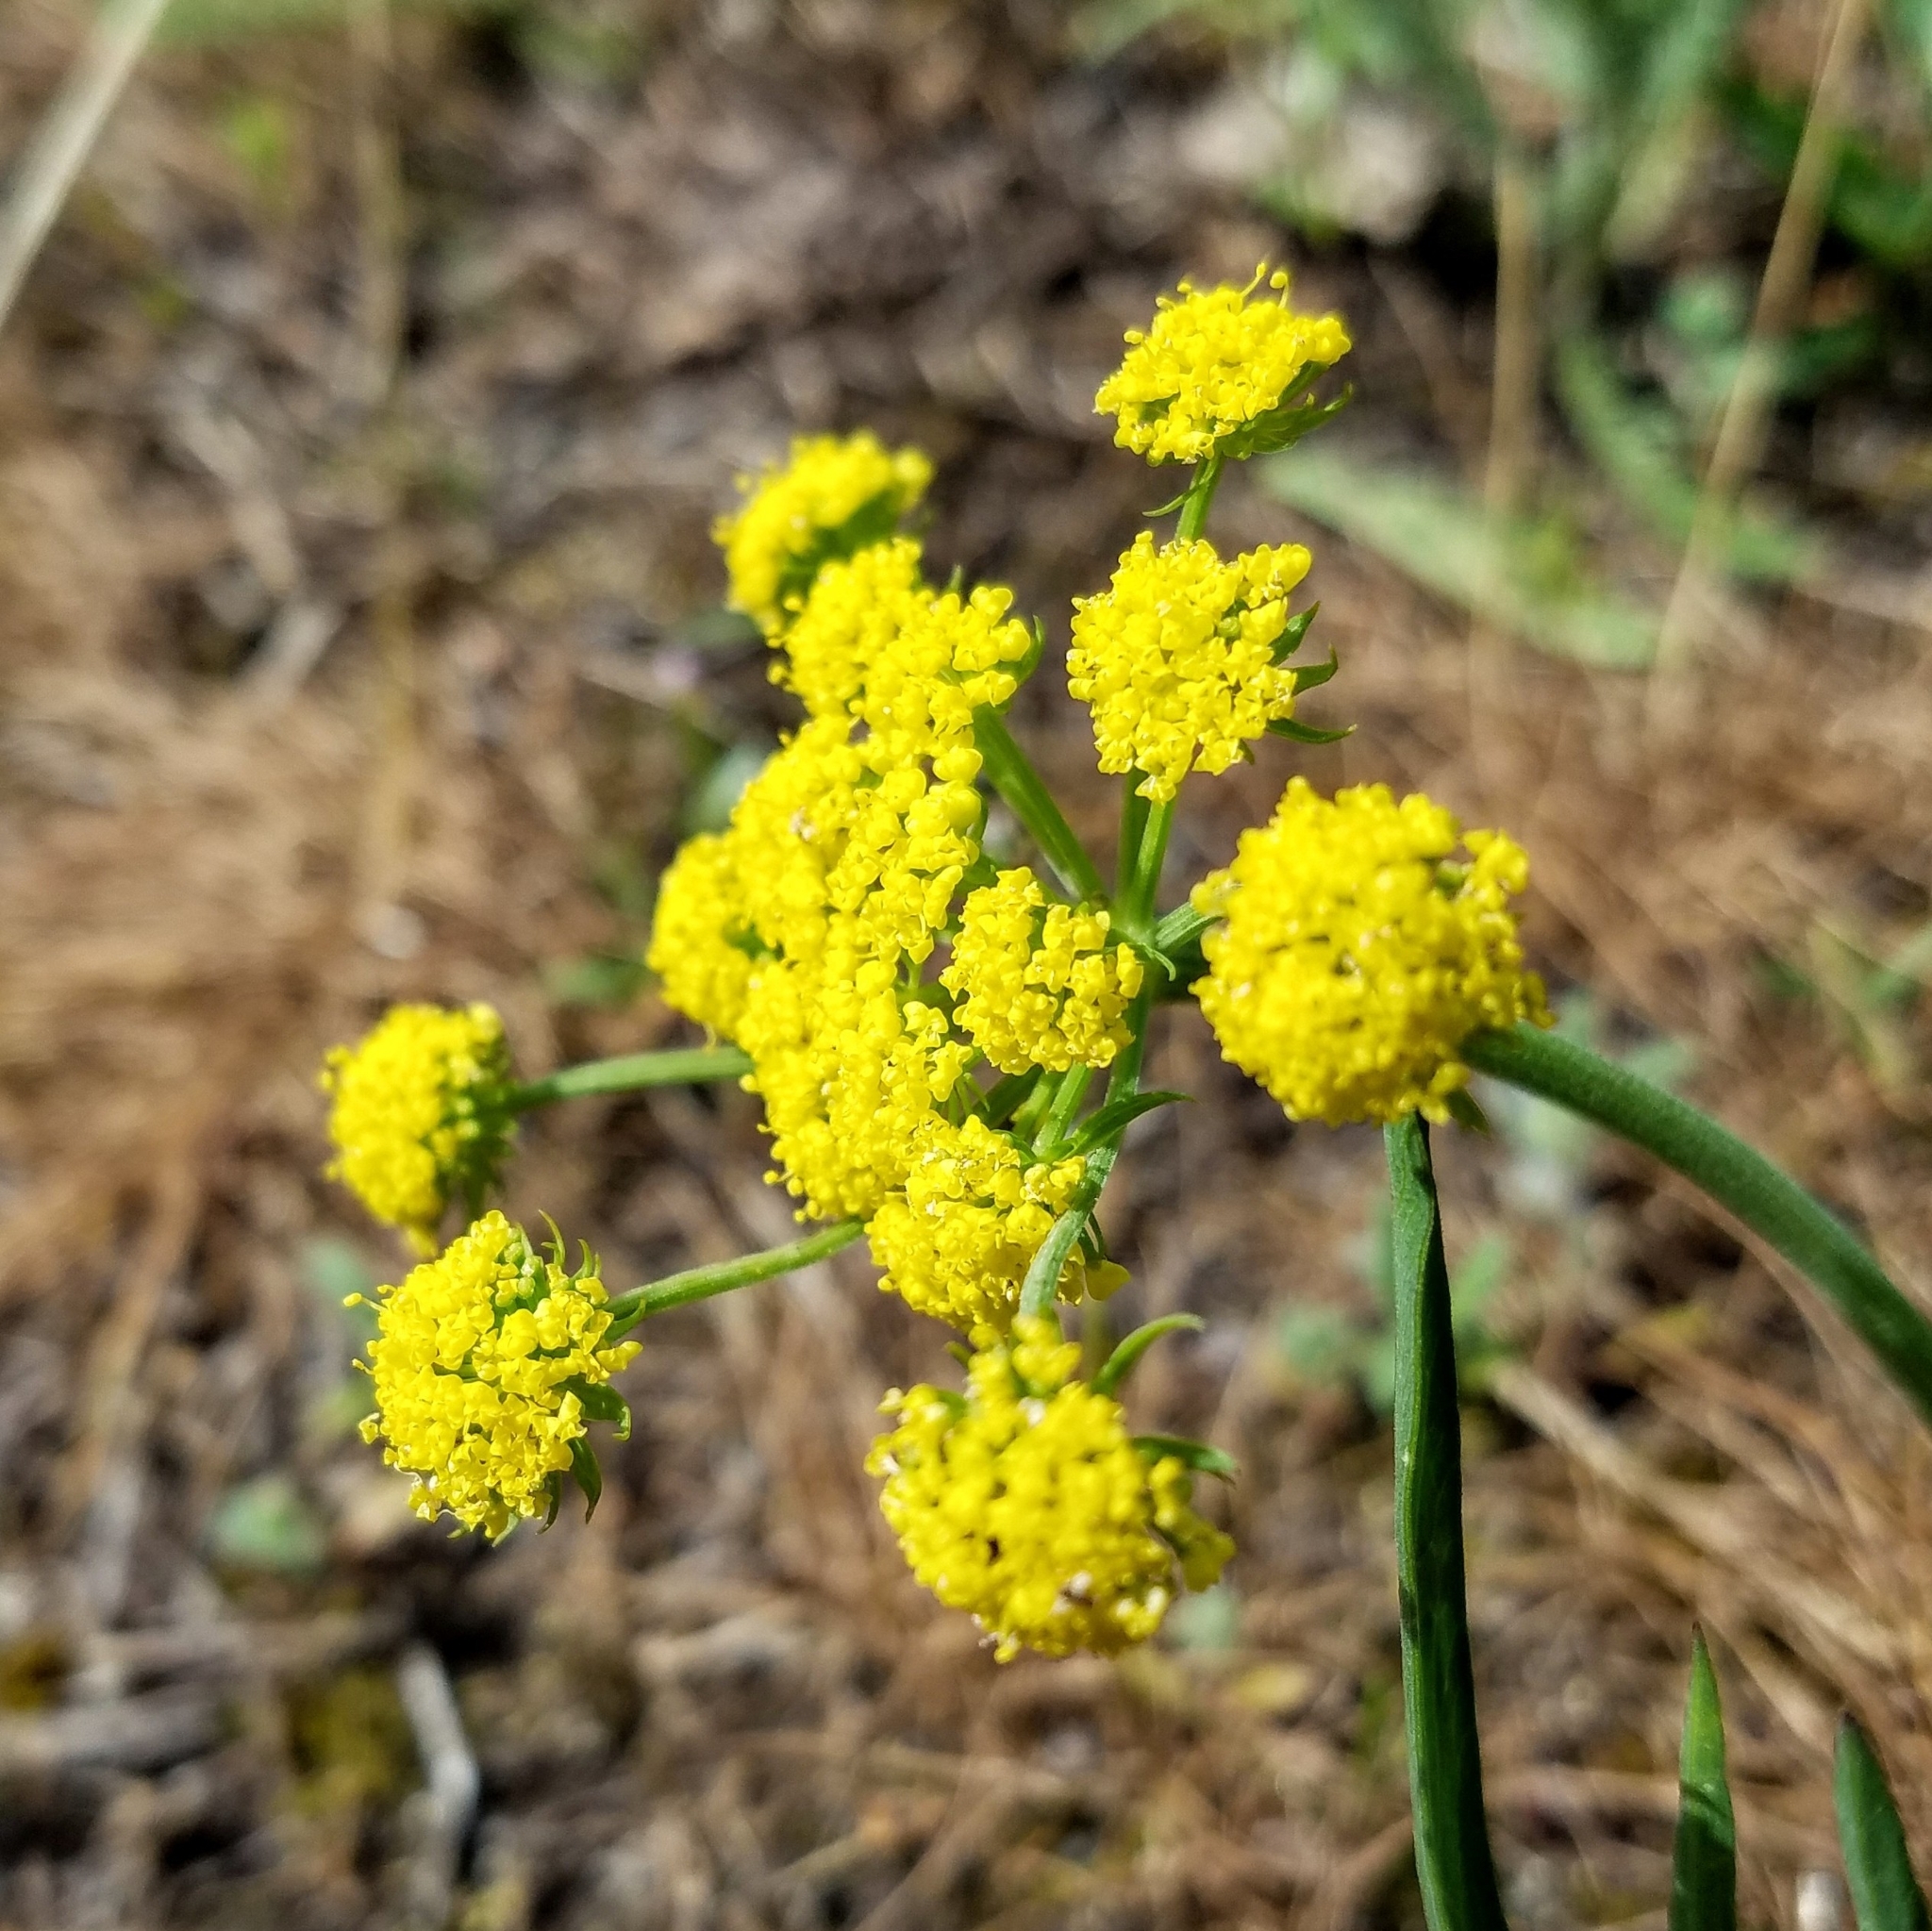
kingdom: Plantae
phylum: Tracheophyta
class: Magnoliopsida
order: Apiales
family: Apiaceae
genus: Lomatium
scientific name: Lomatium triternatum
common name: Ternate lomatium
